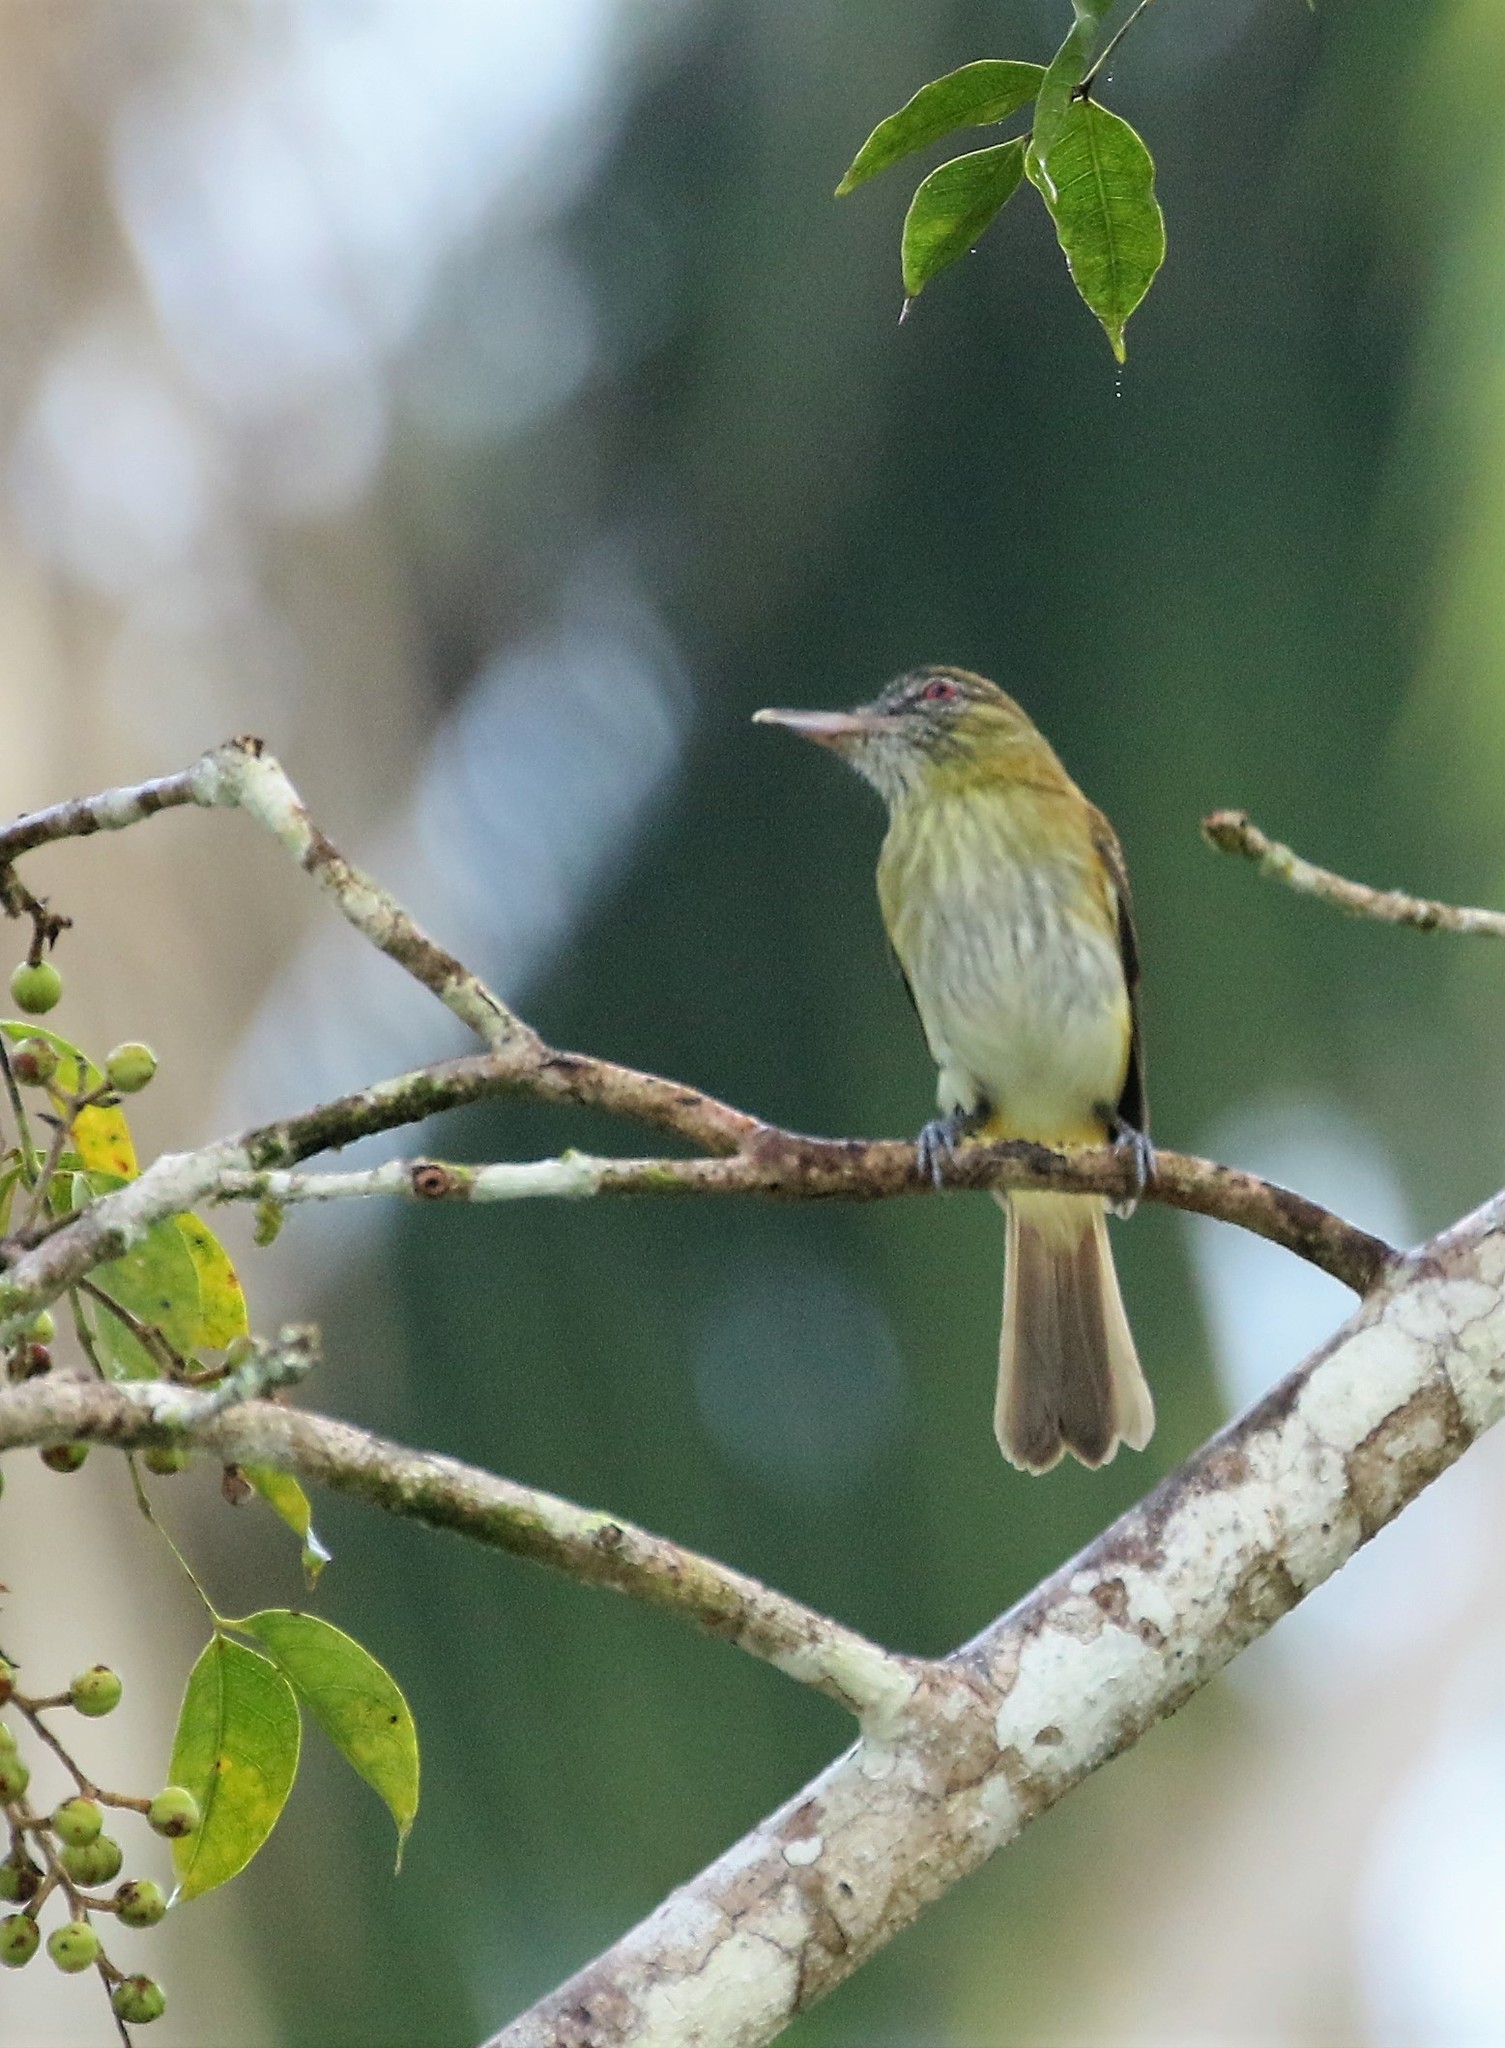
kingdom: Animalia
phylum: Chordata
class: Aves
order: Passeriformes
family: Tyrannidae
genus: Attila
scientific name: Attila spadiceus
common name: Bright-rumped attila
